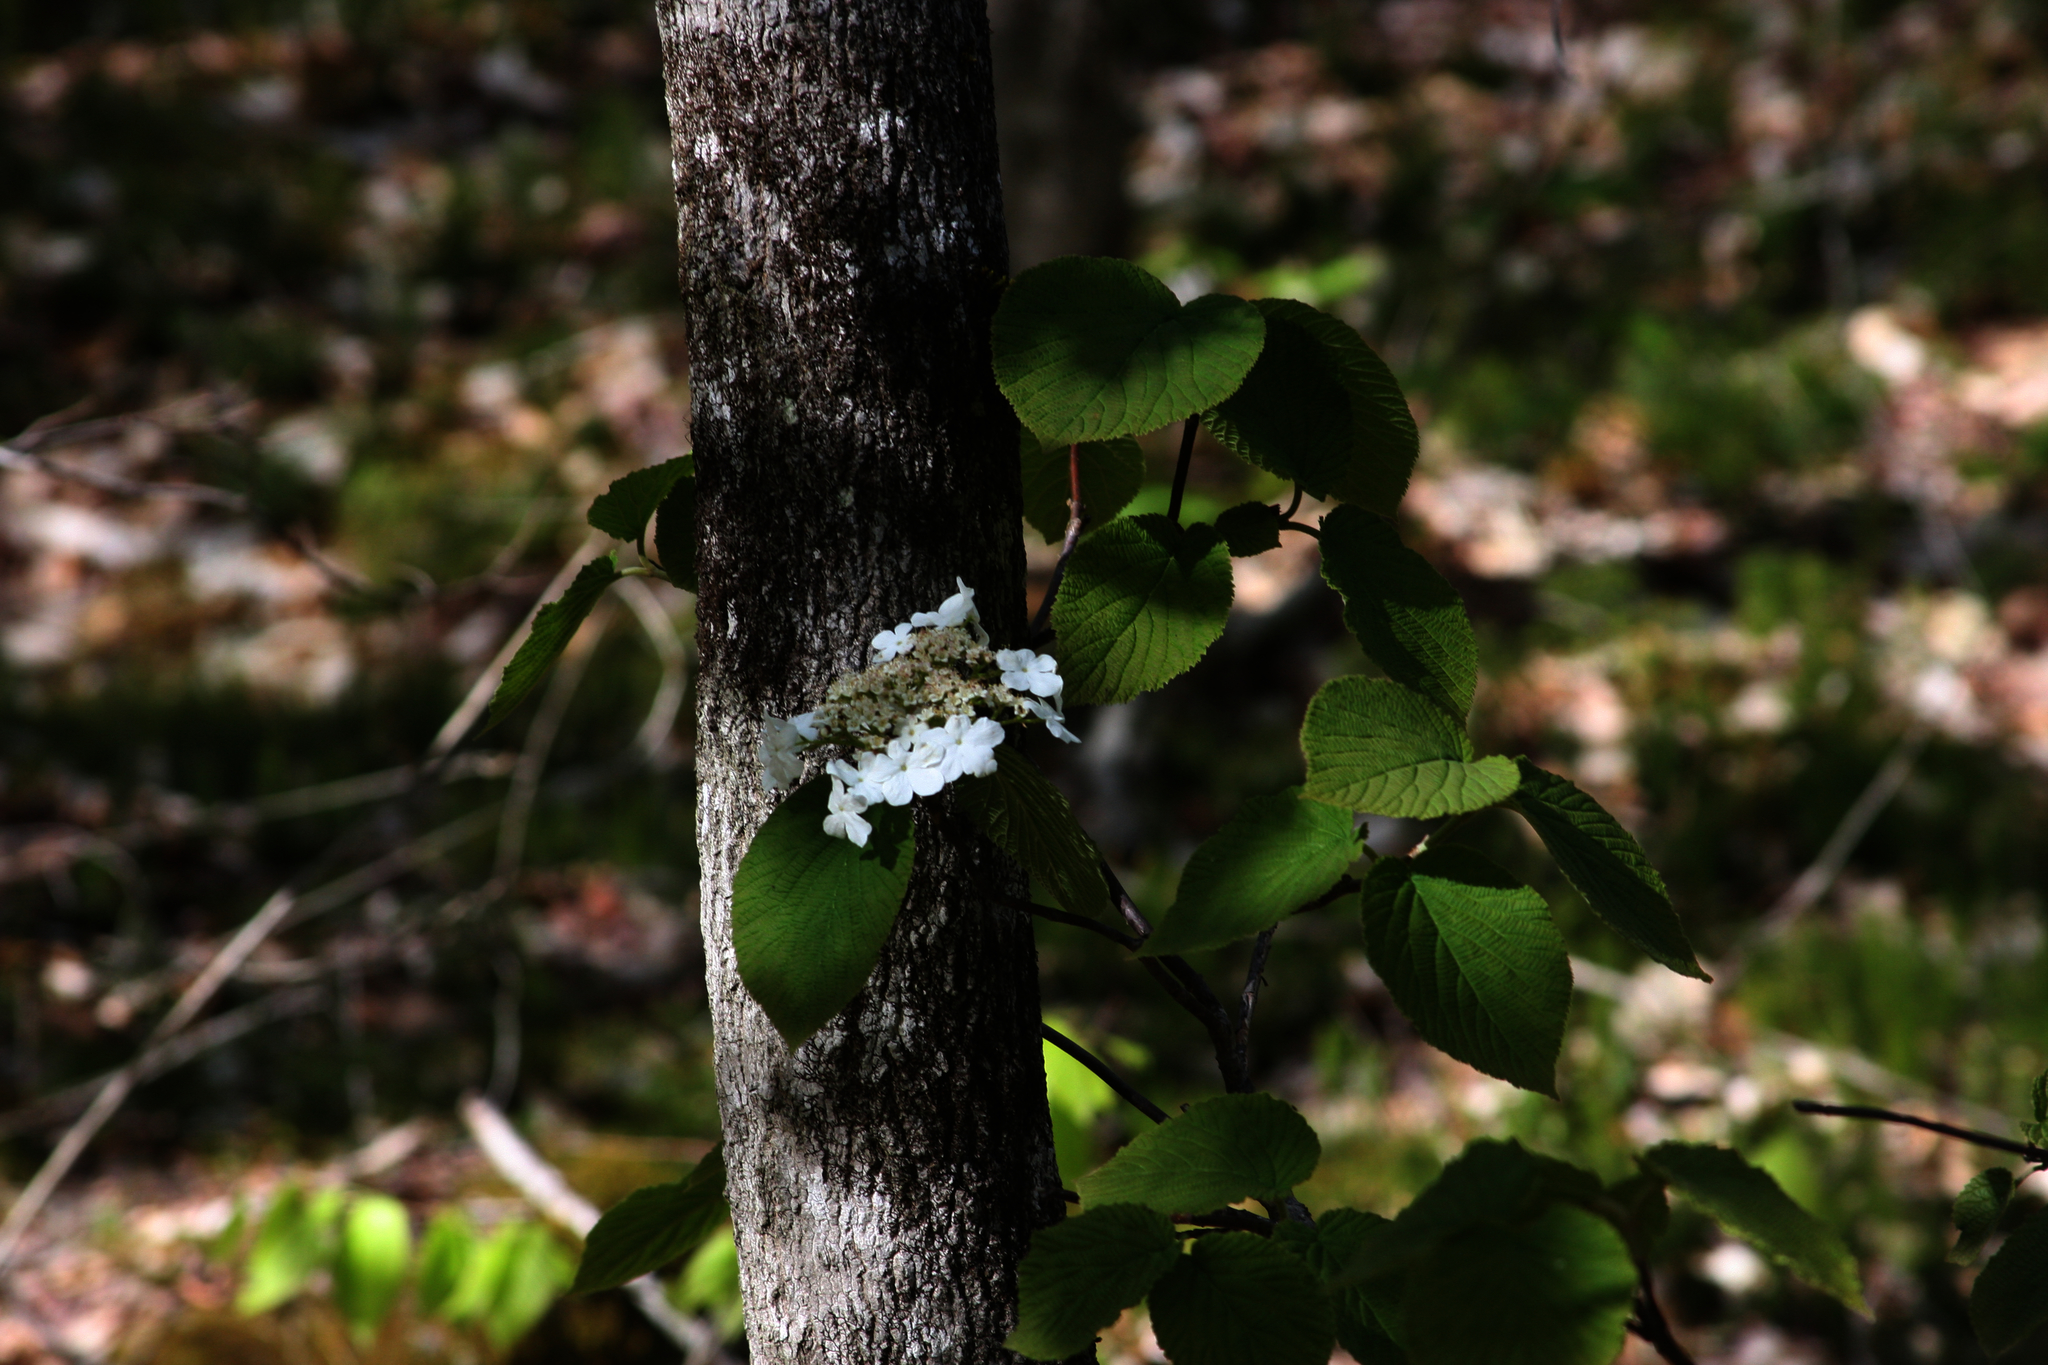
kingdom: Plantae
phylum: Tracheophyta
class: Magnoliopsida
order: Dipsacales
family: Viburnaceae
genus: Viburnum
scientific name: Viburnum lantanoides
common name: Hobblebush
